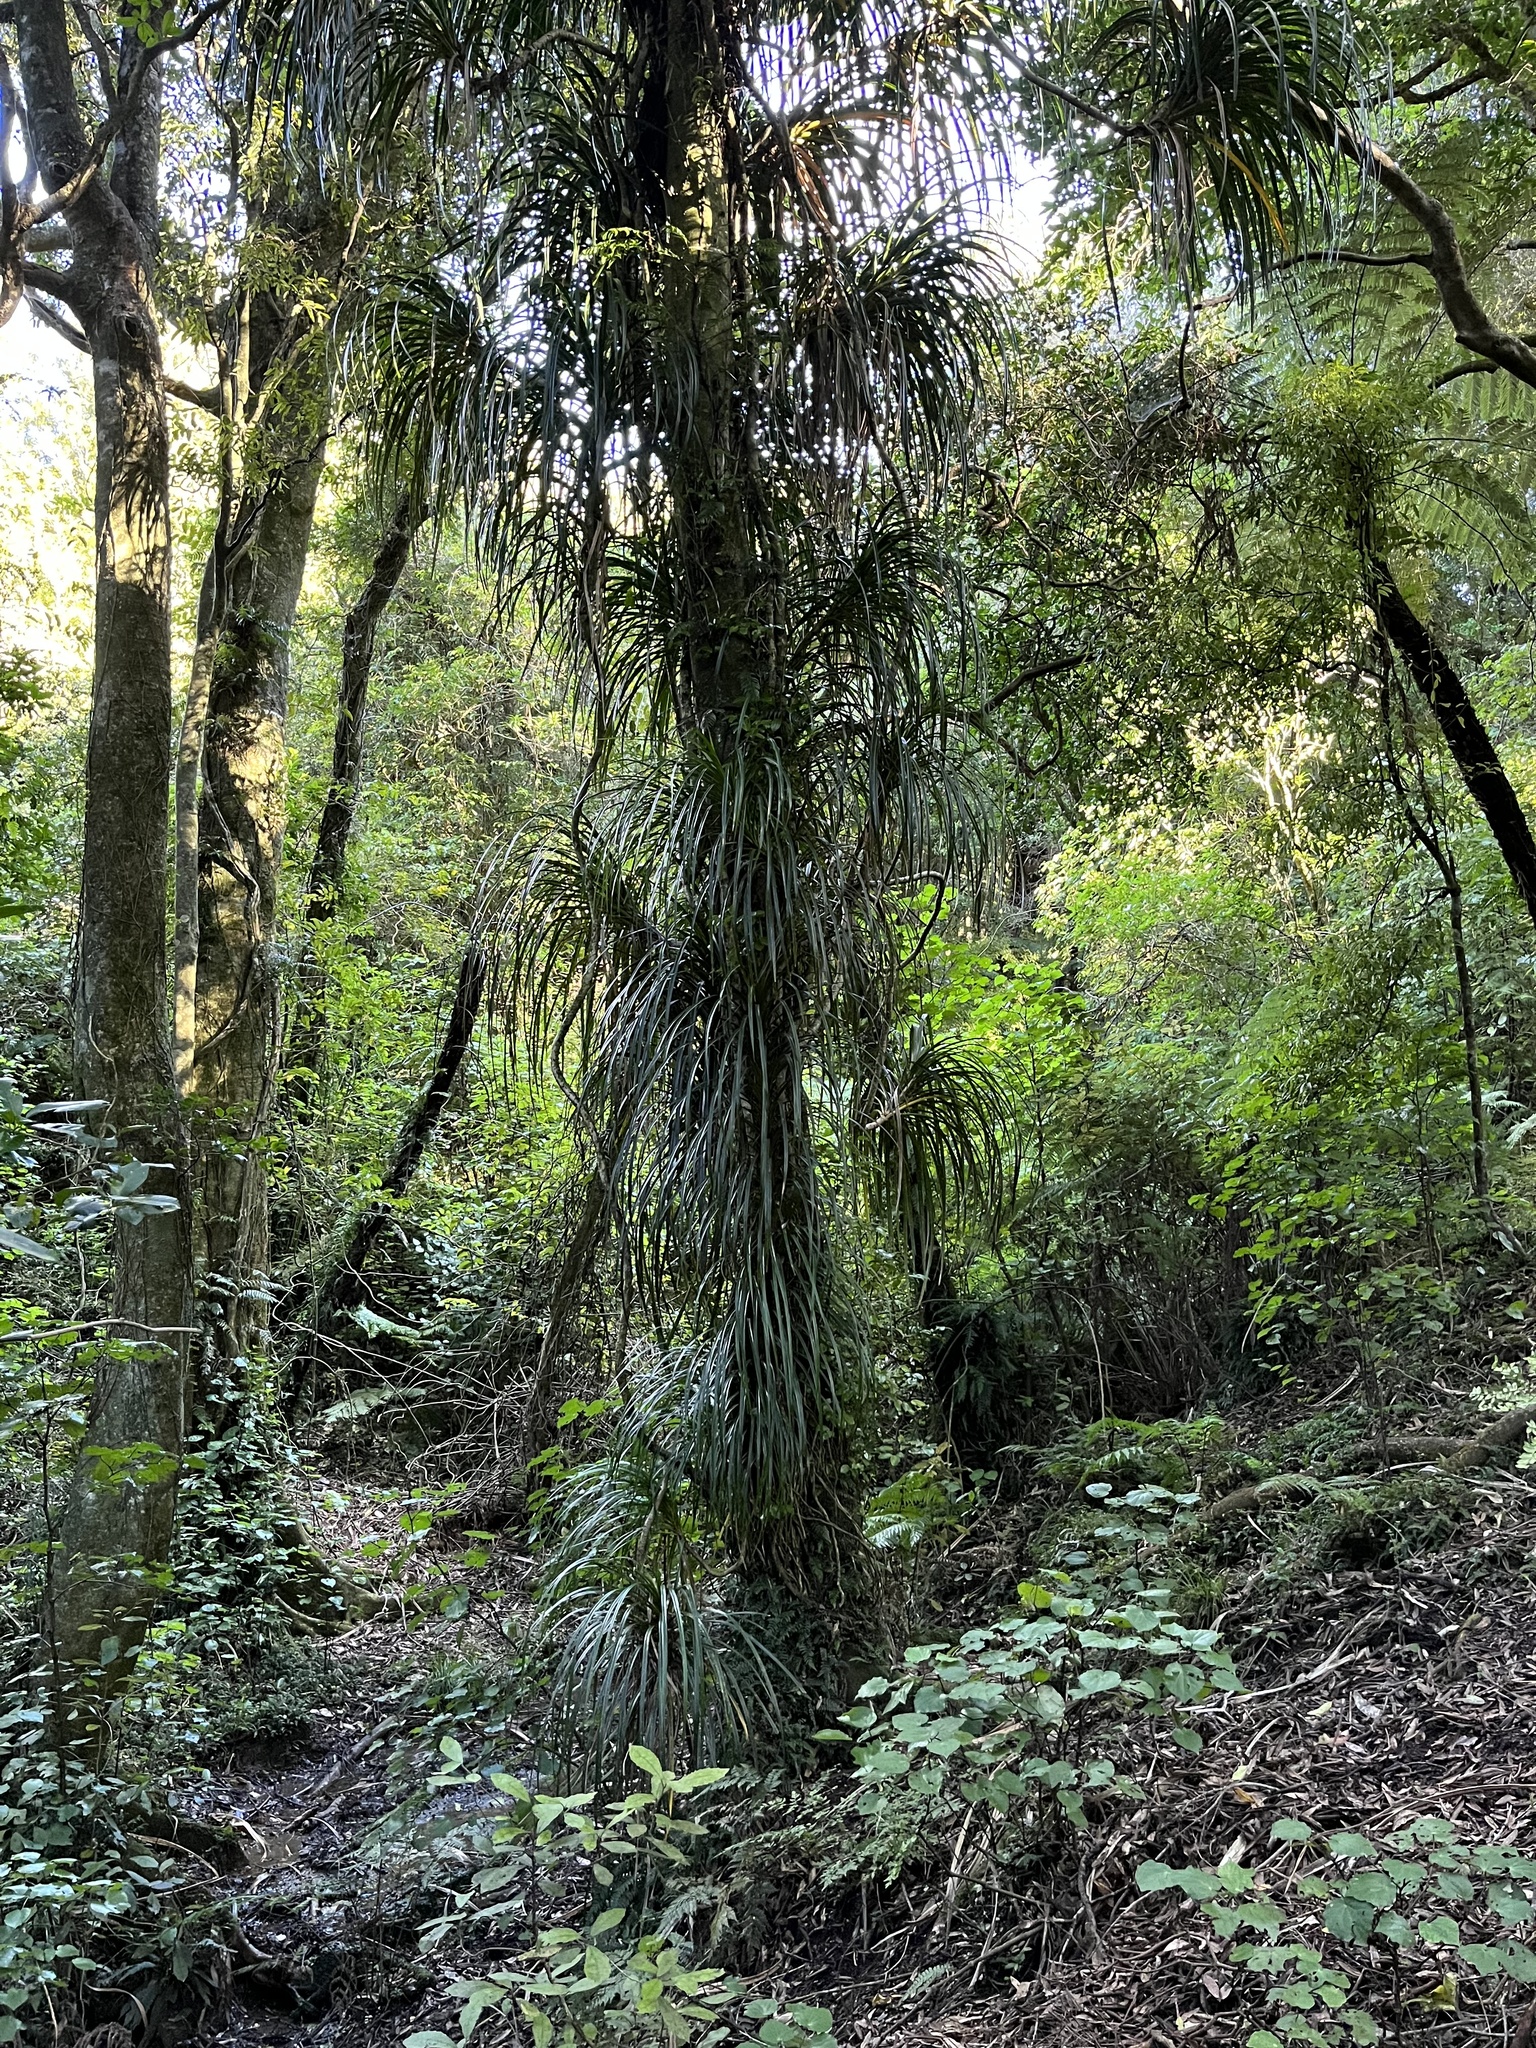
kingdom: Plantae
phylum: Tracheophyta
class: Liliopsida
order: Pandanales
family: Pandanaceae
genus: Freycinetia
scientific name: Freycinetia banksii
